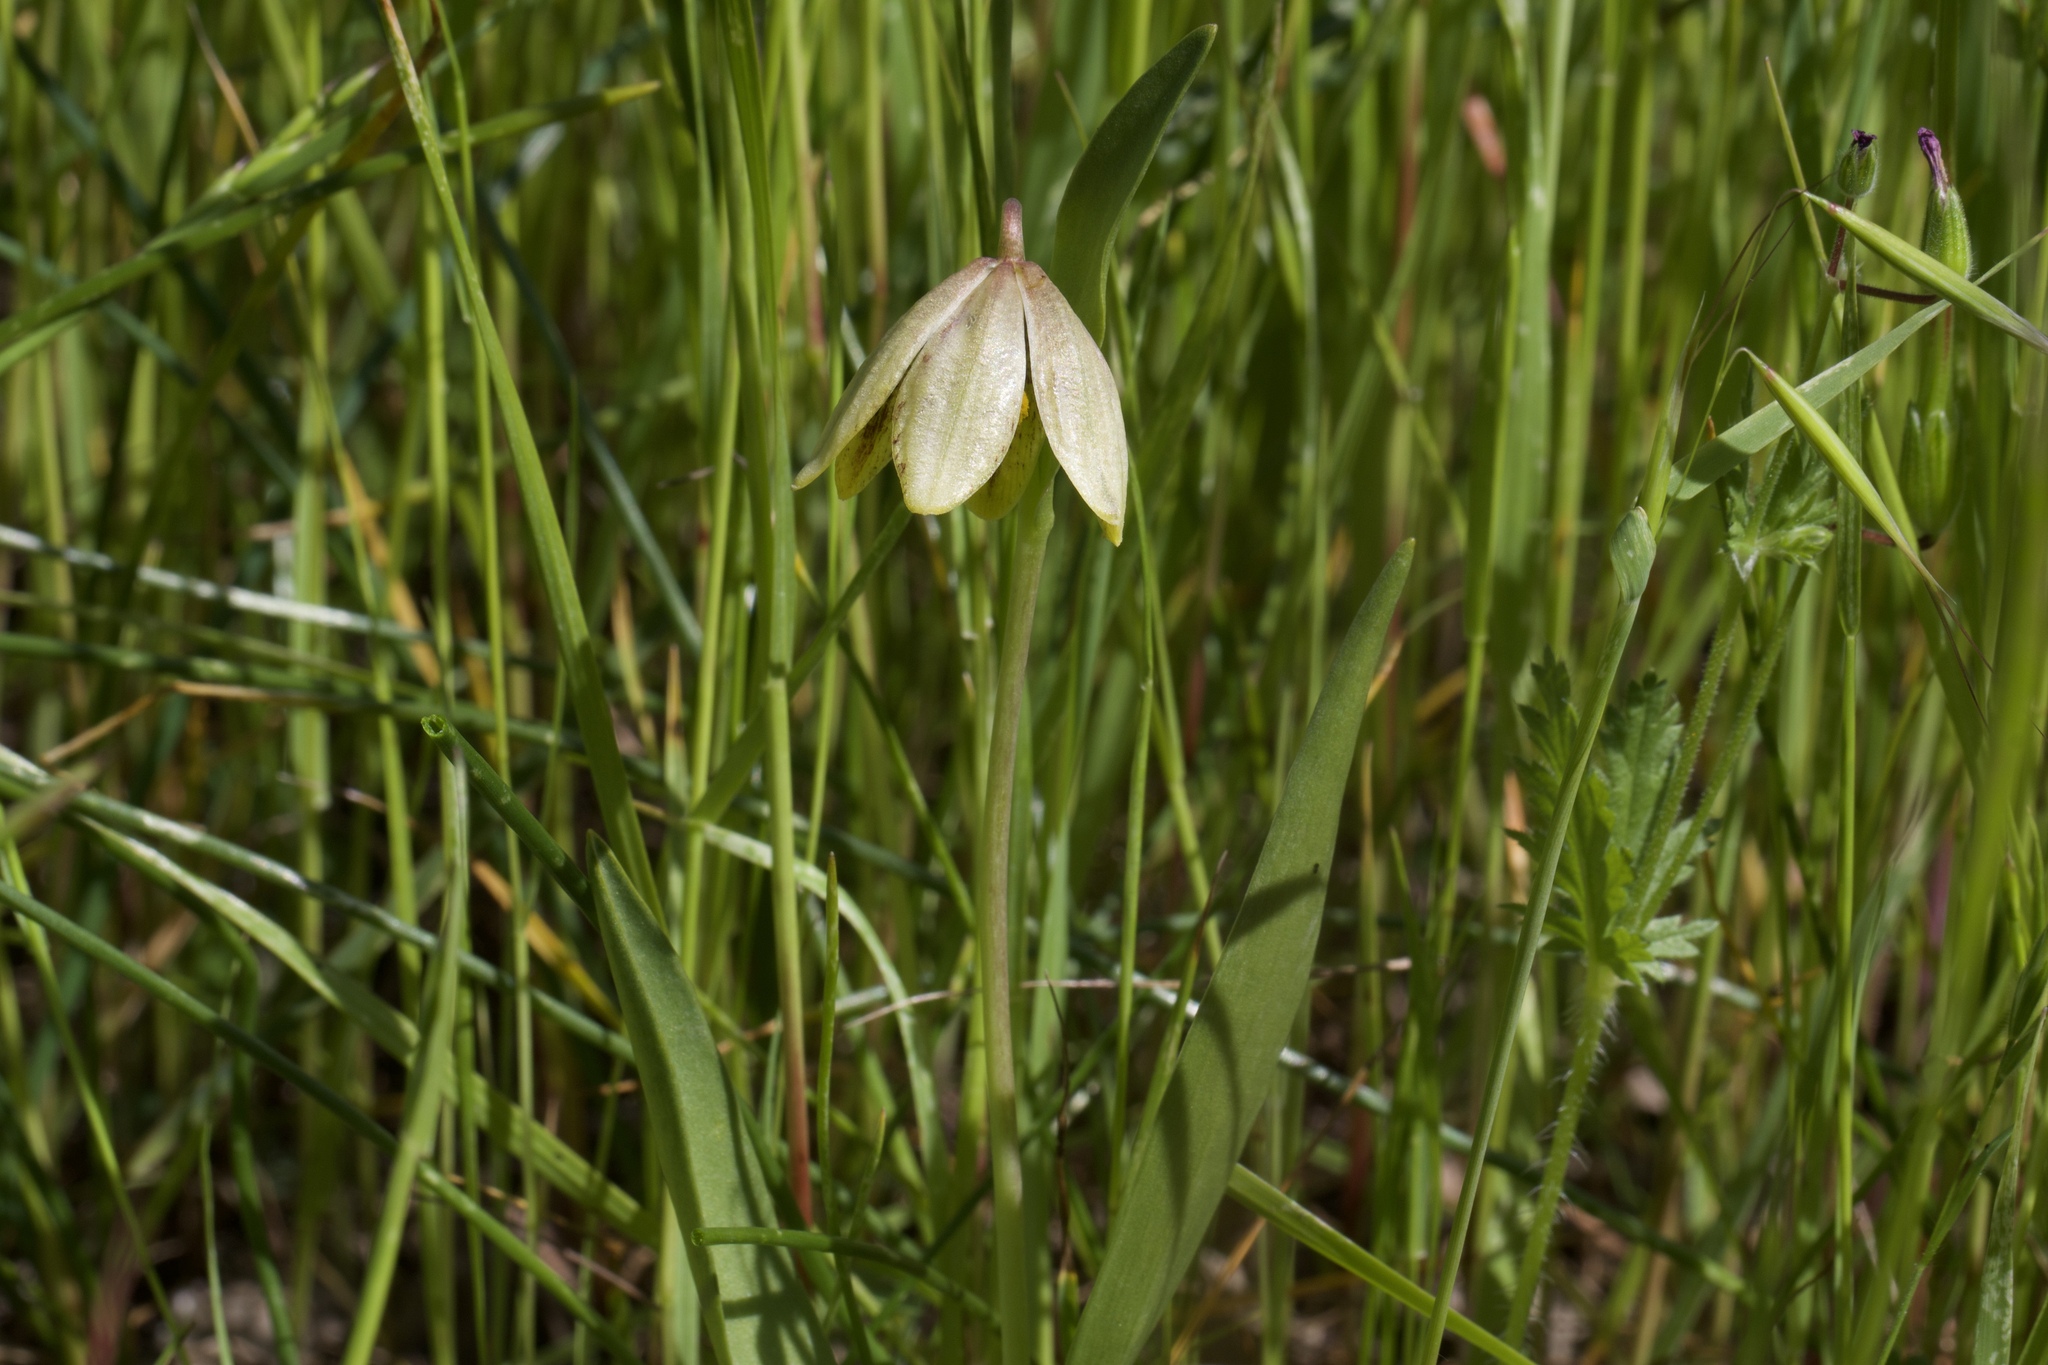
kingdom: Plantae
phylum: Tracheophyta
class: Liliopsida
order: Liliales
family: Liliaceae
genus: Fritillaria
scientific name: Fritillaria agrestis
